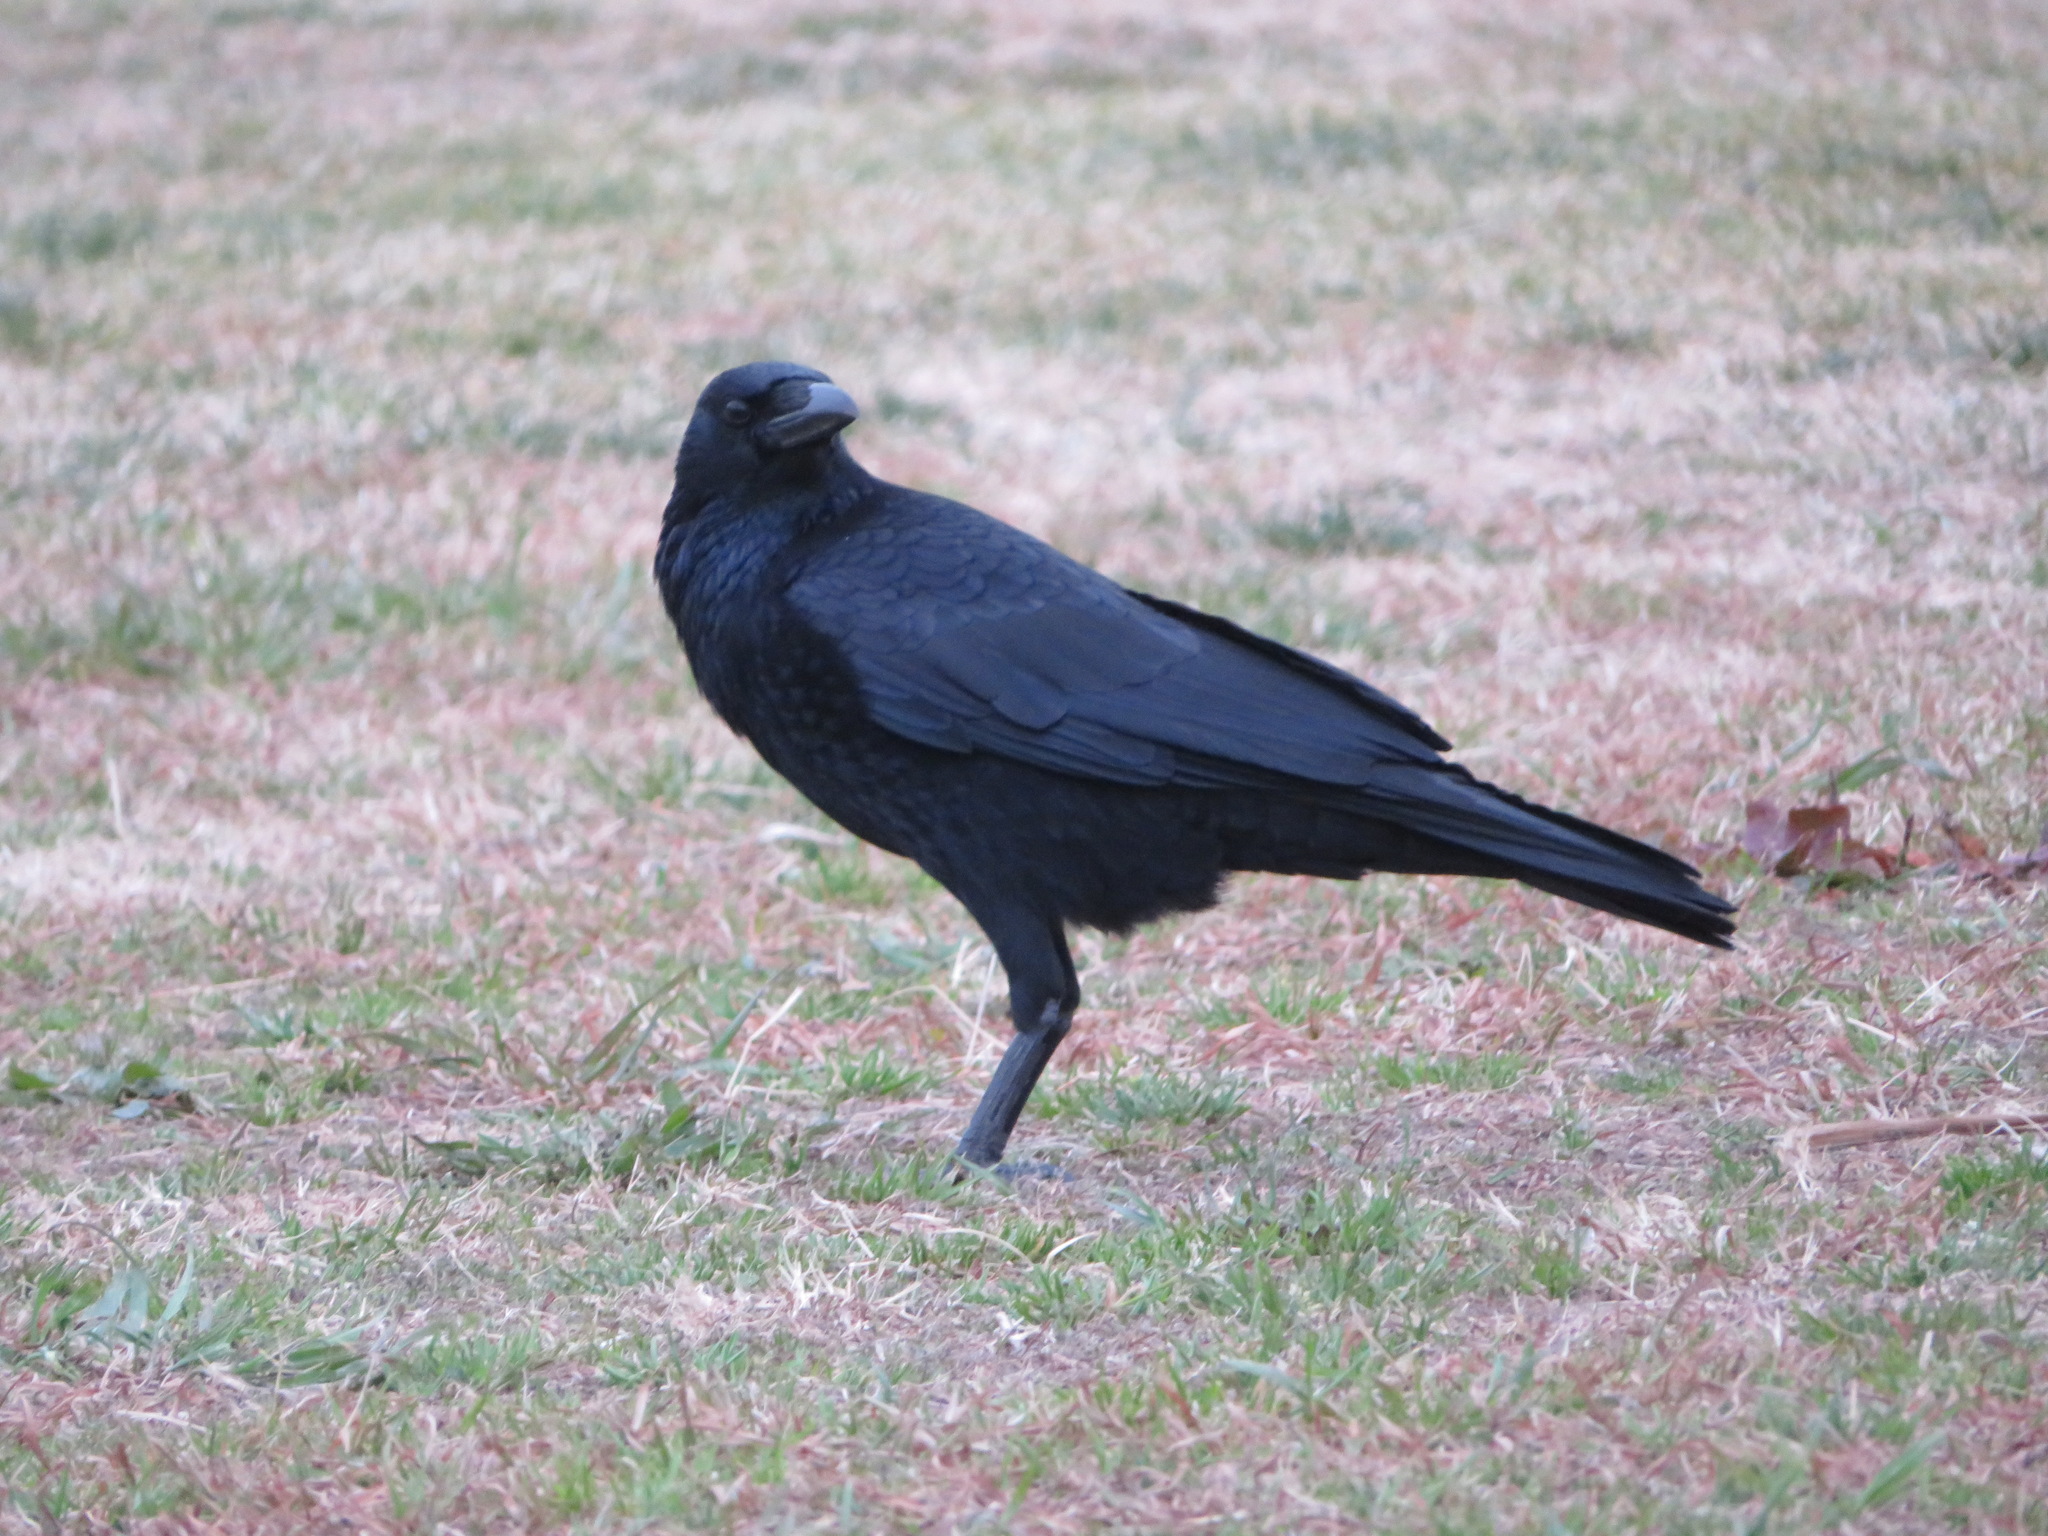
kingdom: Animalia
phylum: Chordata
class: Aves
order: Passeriformes
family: Corvidae
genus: Corvus
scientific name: Corvus corone
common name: Carrion crow
